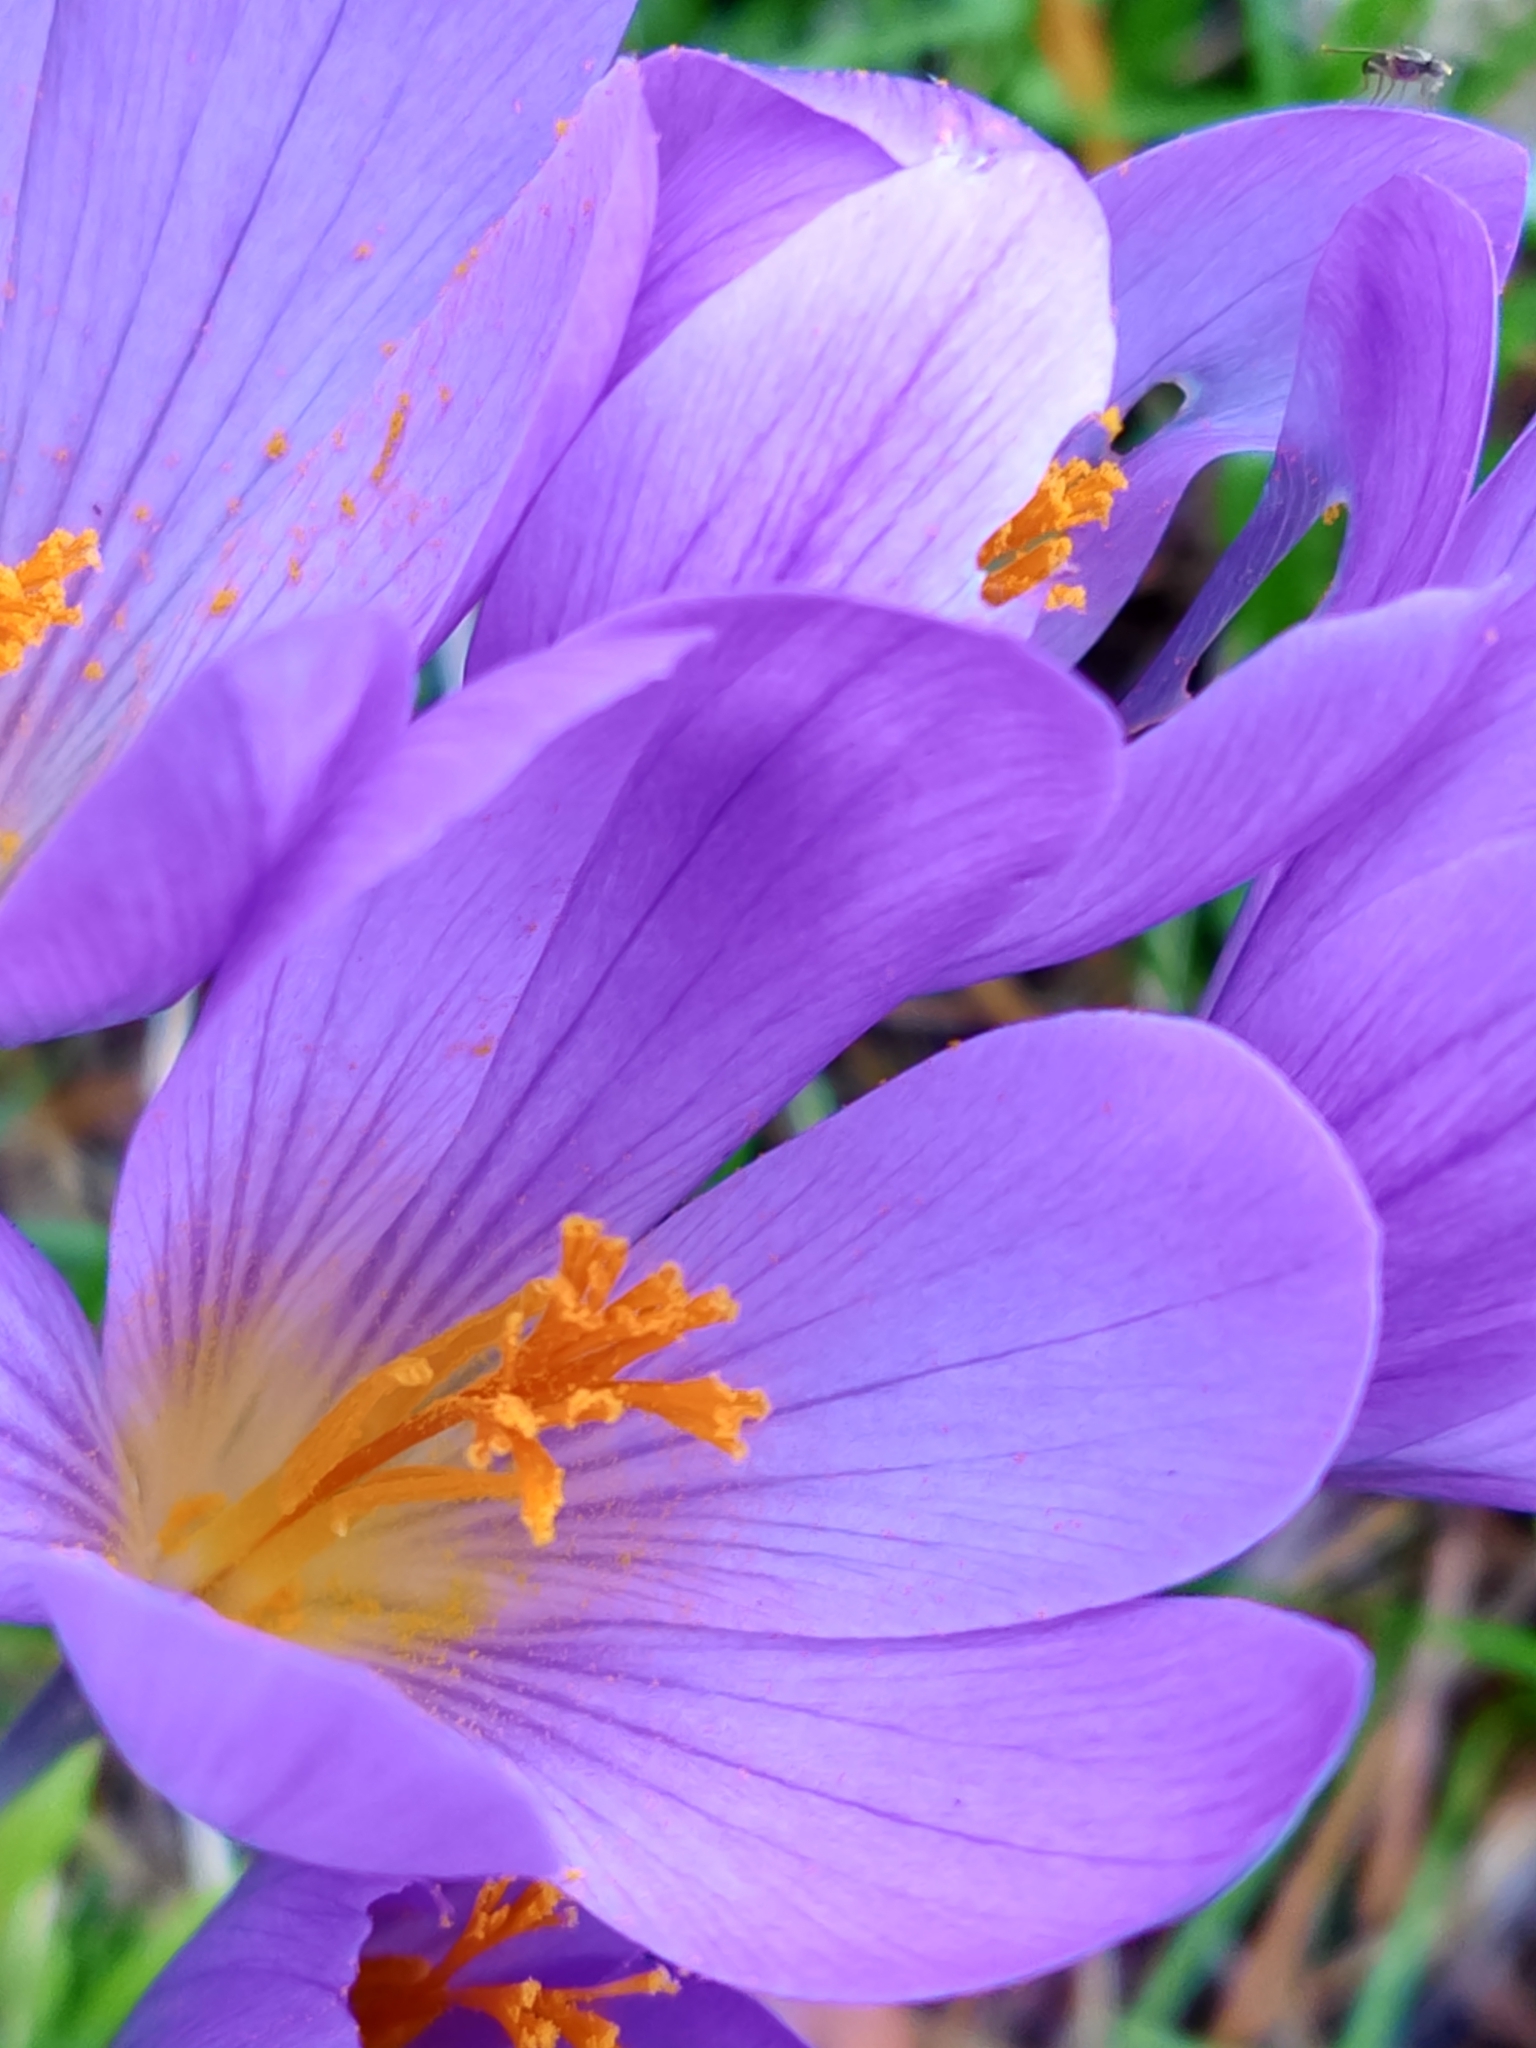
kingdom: Plantae
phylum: Tracheophyta
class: Liliopsida
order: Asparagales
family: Iridaceae
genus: Crocus
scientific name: Crocus serotinus
